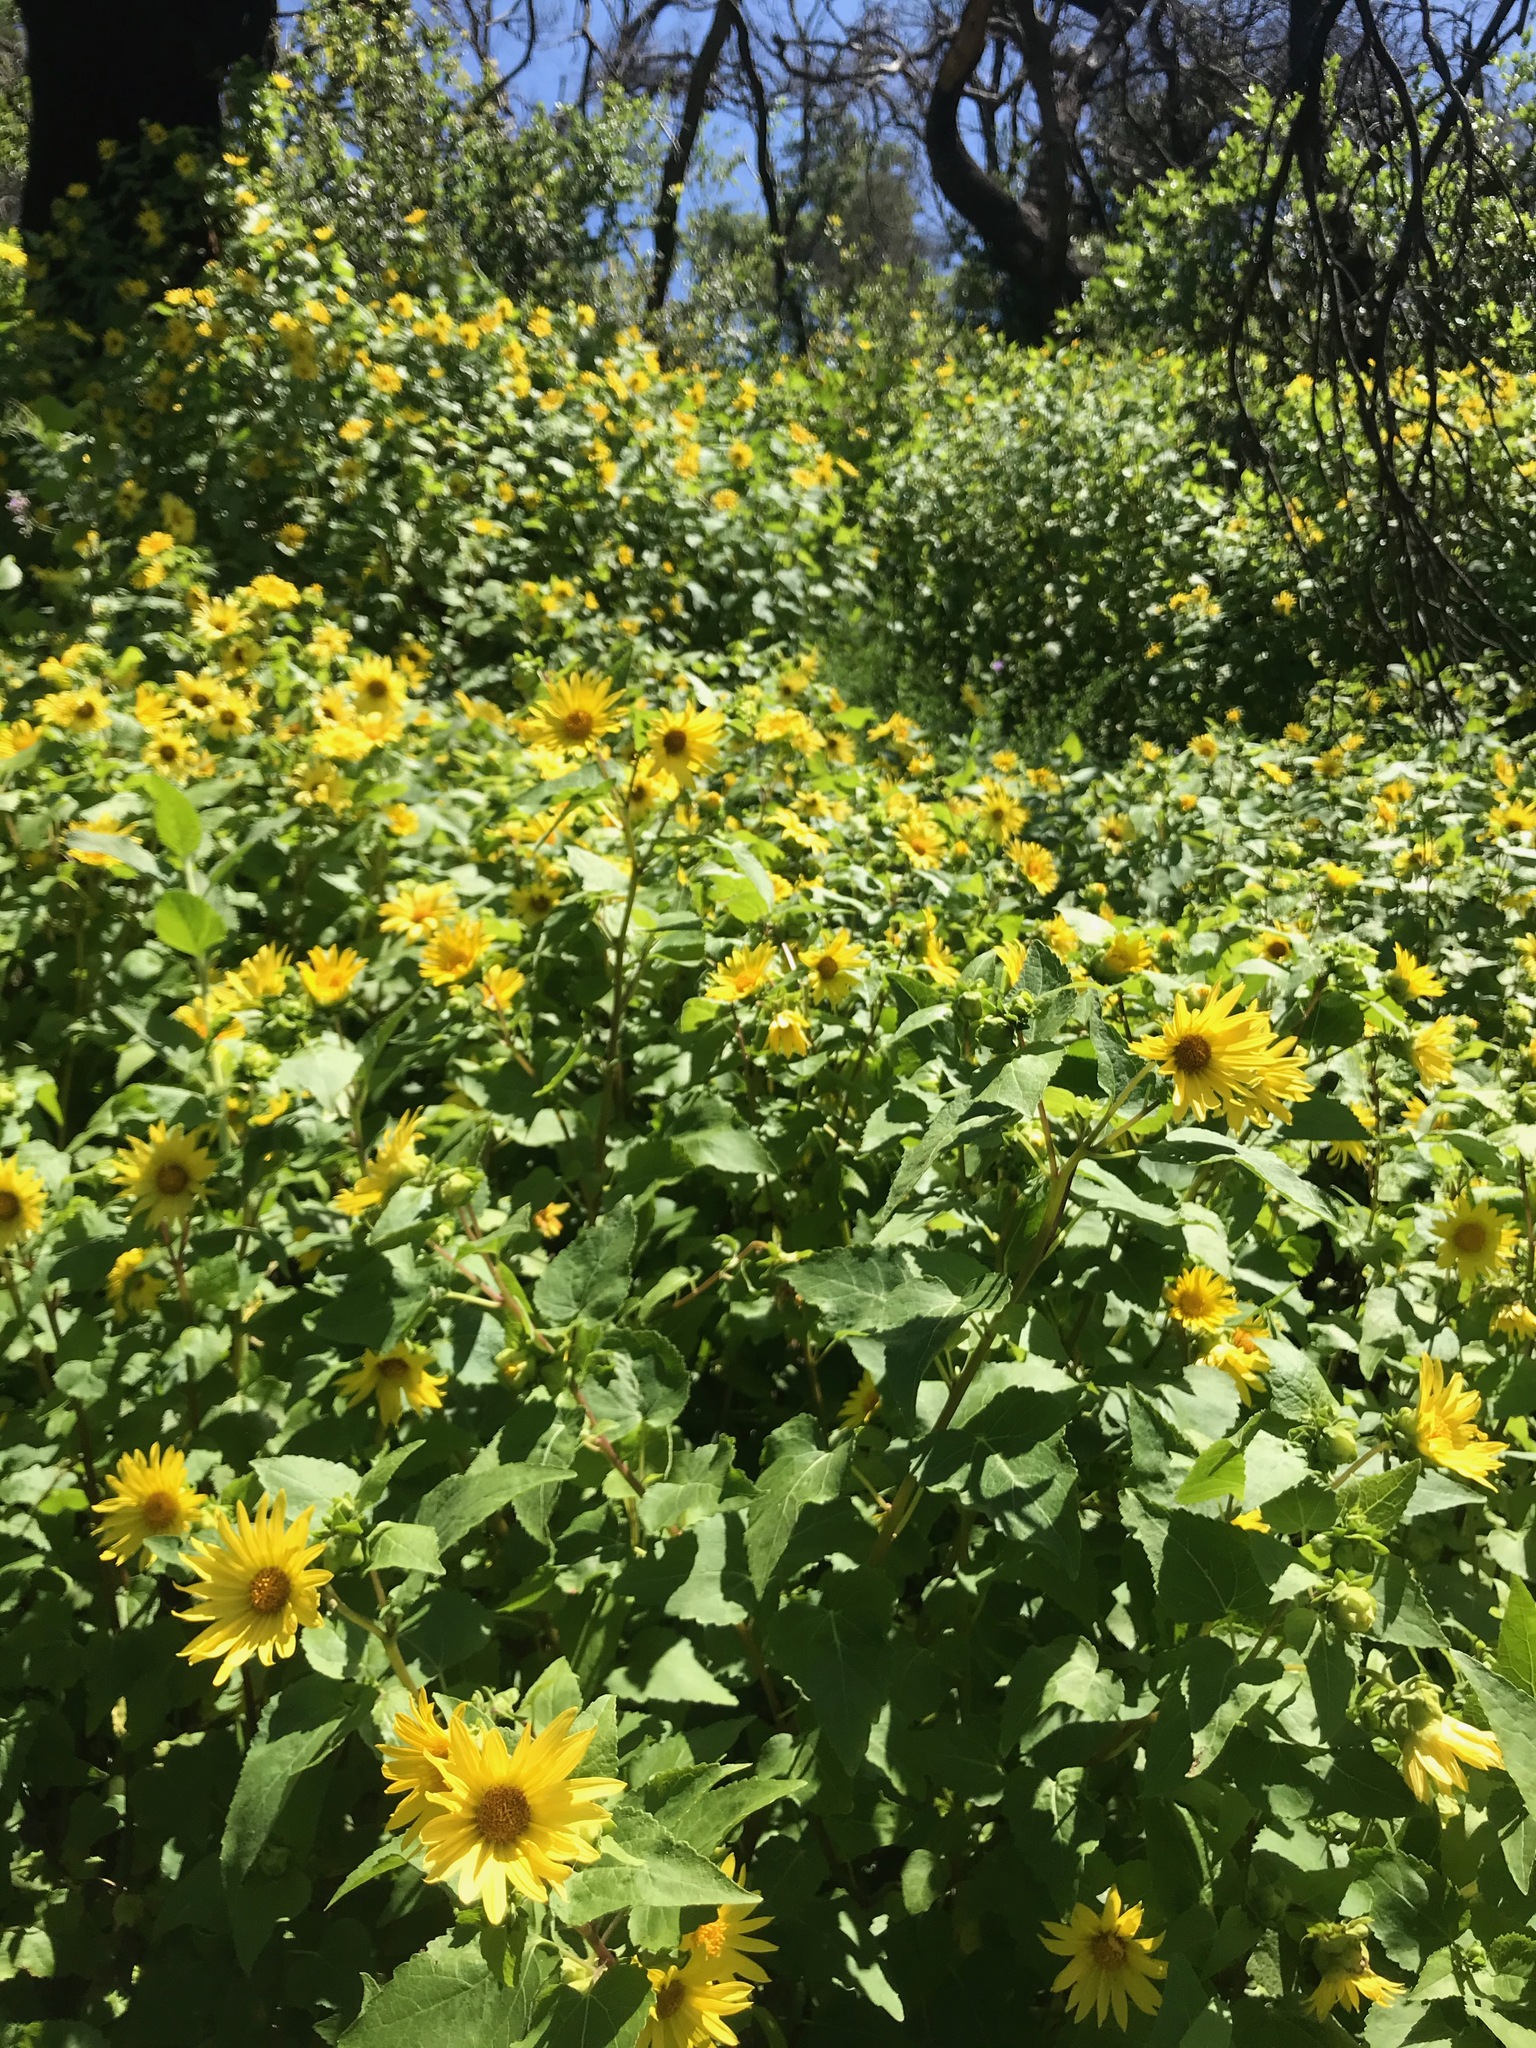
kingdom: Plantae
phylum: Tracheophyta
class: Magnoliopsida
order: Asterales
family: Asteraceae
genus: Venegasia
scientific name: Venegasia carpesioides
